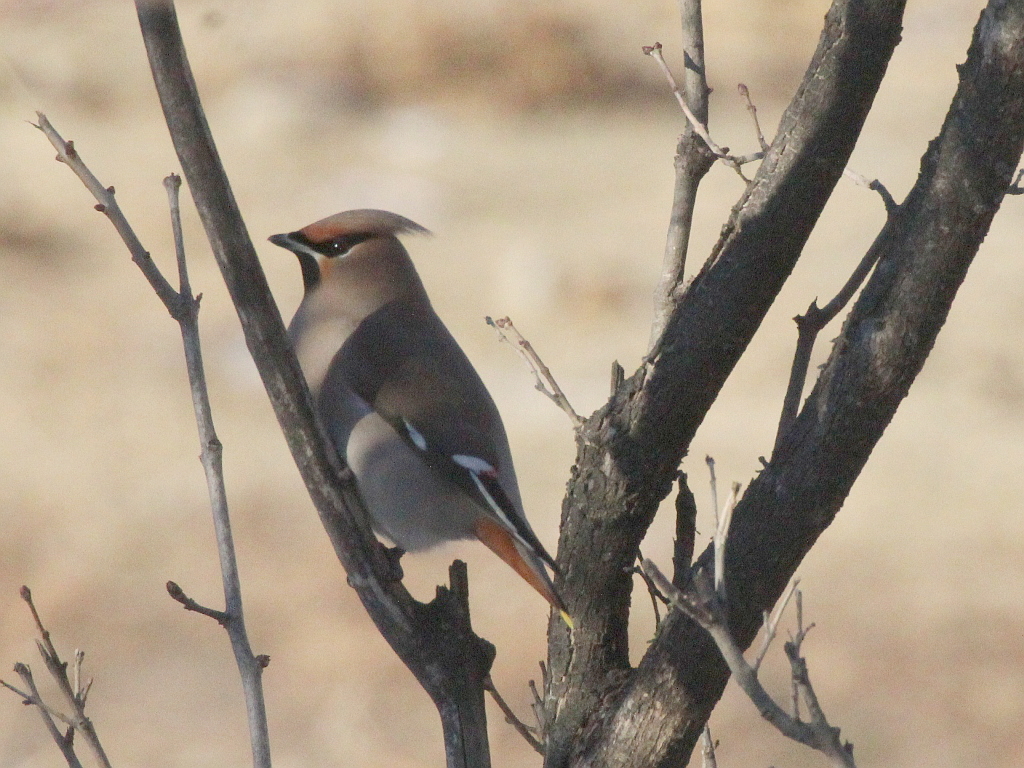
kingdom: Animalia
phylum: Chordata
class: Aves
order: Passeriformes
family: Bombycillidae
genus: Bombycilla
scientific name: Bombycilla garrulus
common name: Bohemian waxwing
